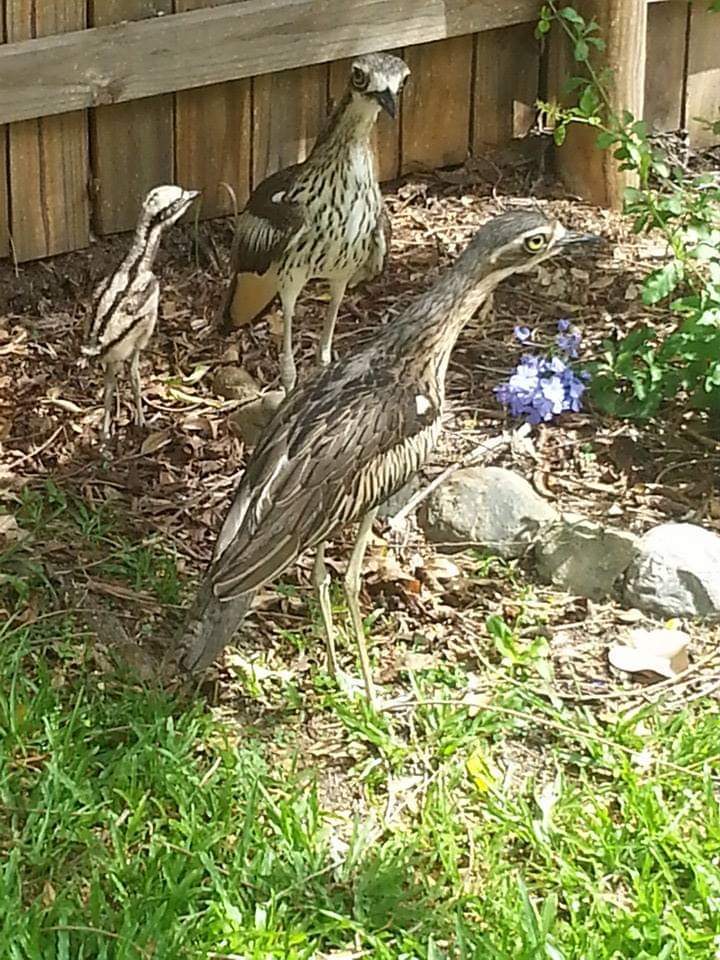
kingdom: Animalia
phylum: Chordata
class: Aves
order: Charadriiformes
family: Burhinidae
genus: Burhinus
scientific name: Burhinus grallarius
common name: Bush stone-curlew
